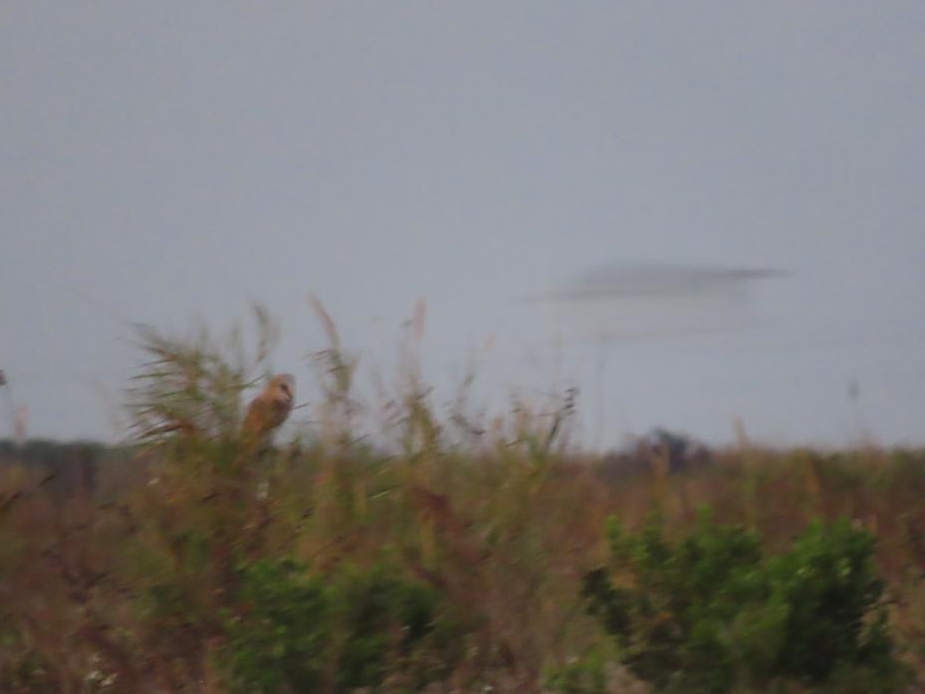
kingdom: Animalia
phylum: Chordata
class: Aves
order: Strigiformes
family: Tytonidae
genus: Tyto
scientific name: Tyto alba
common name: Barn owl
